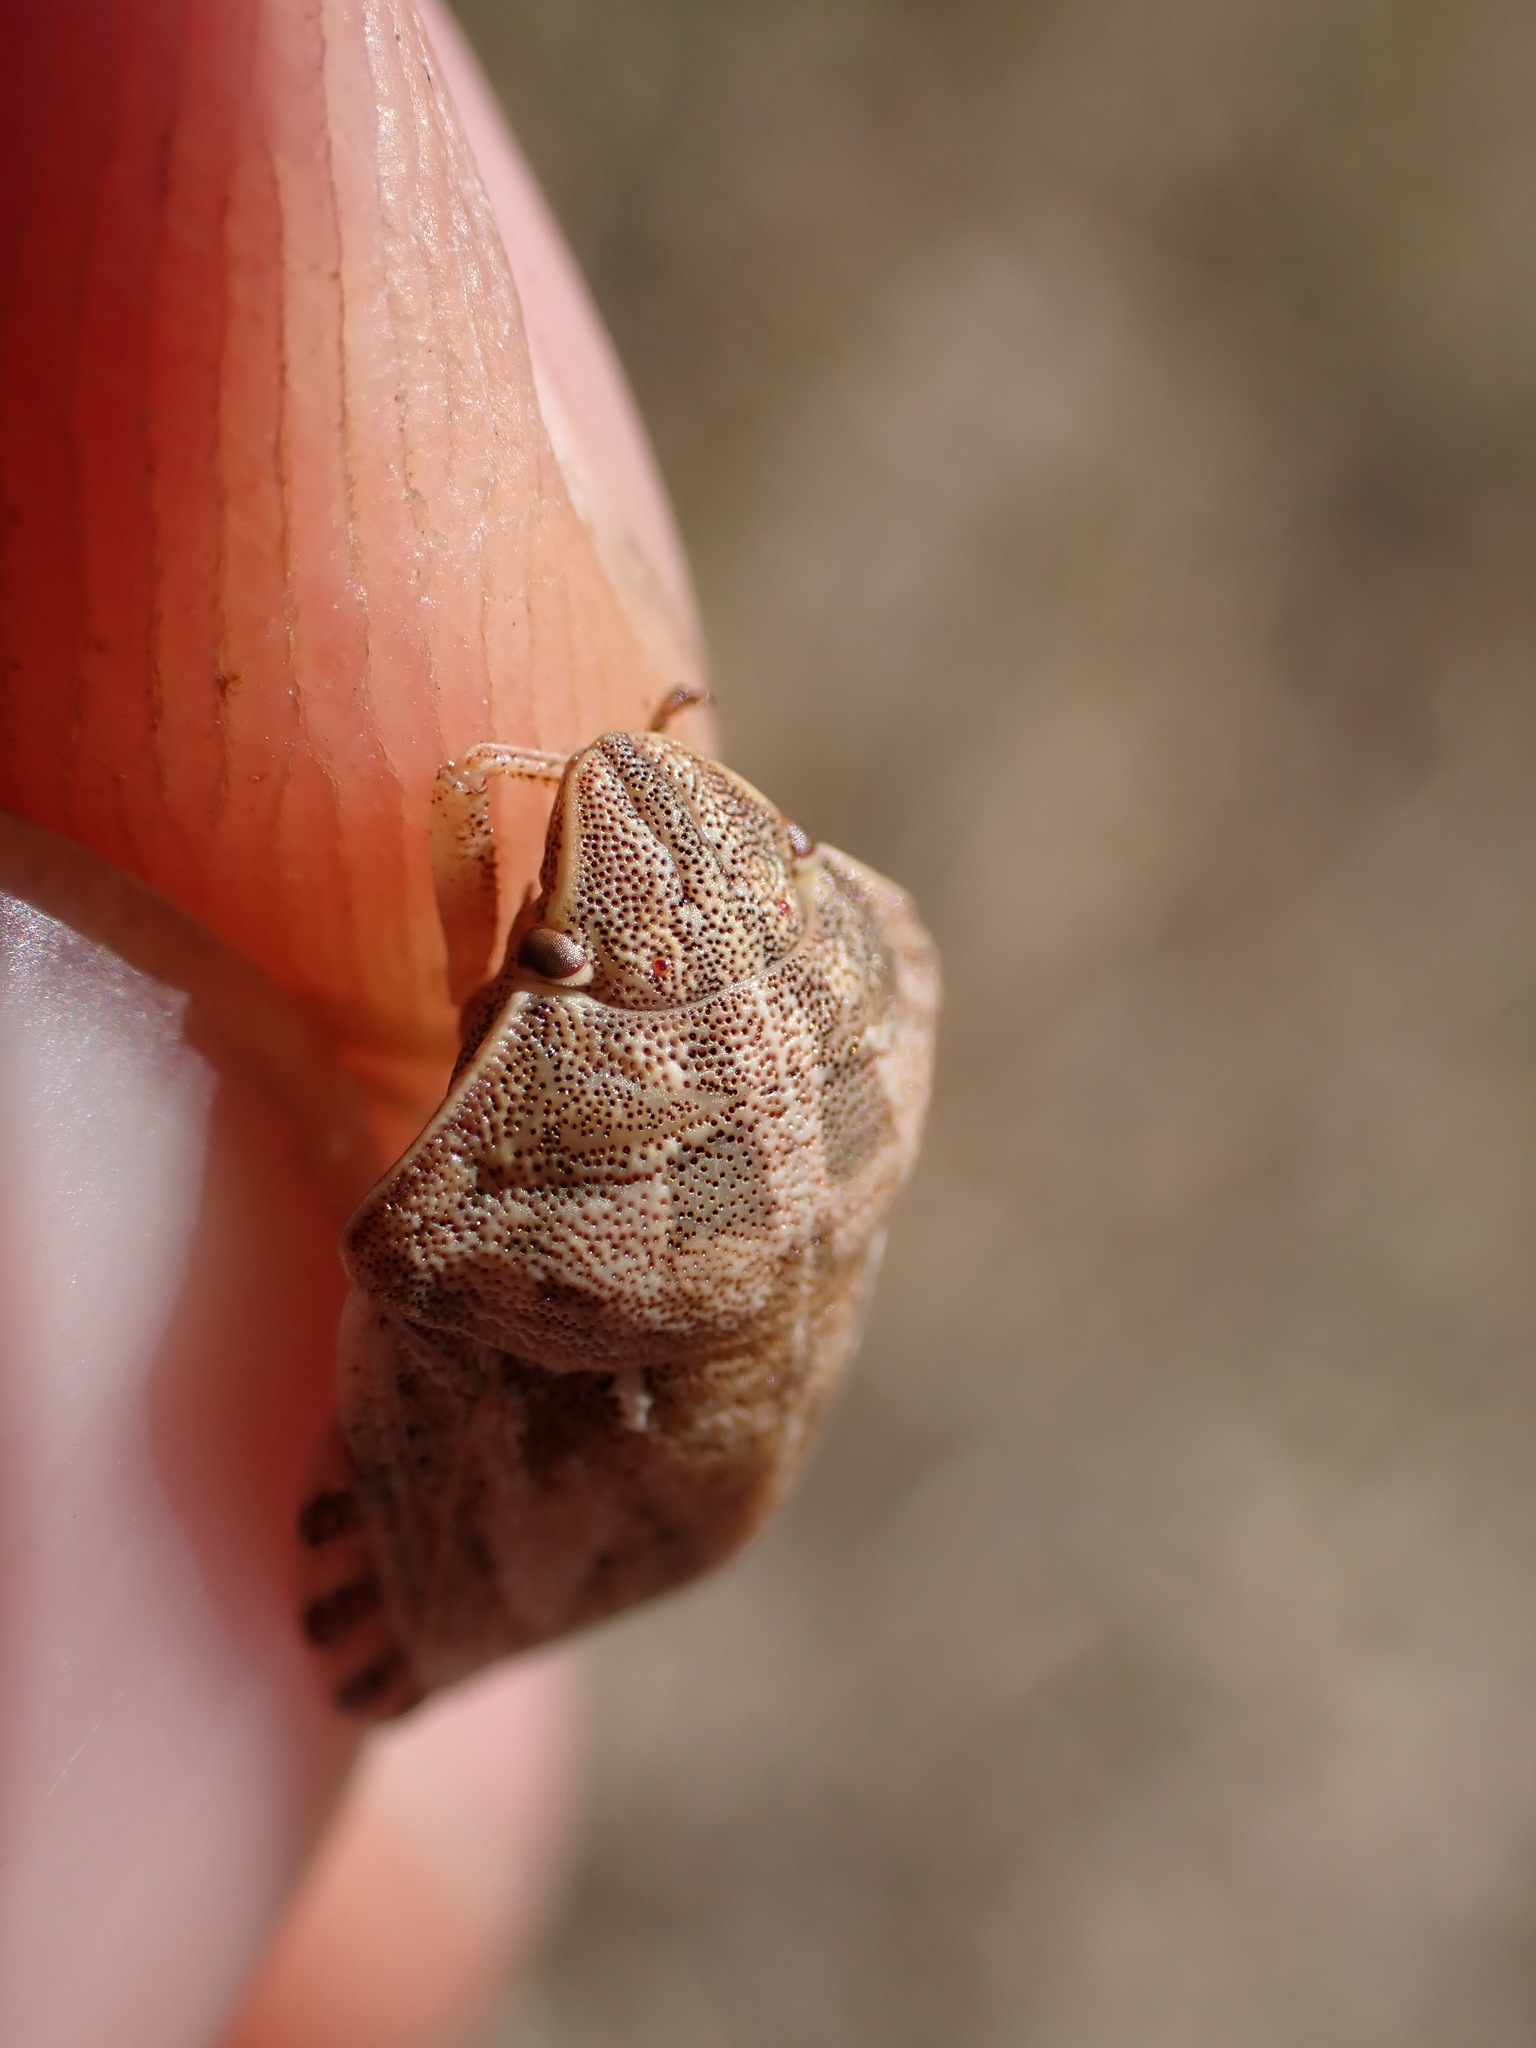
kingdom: Animalia
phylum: Arthropoda
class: Insecta
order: Hemiptera
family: Scutelleridae
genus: Eurygaster
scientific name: Eurygaster maura
